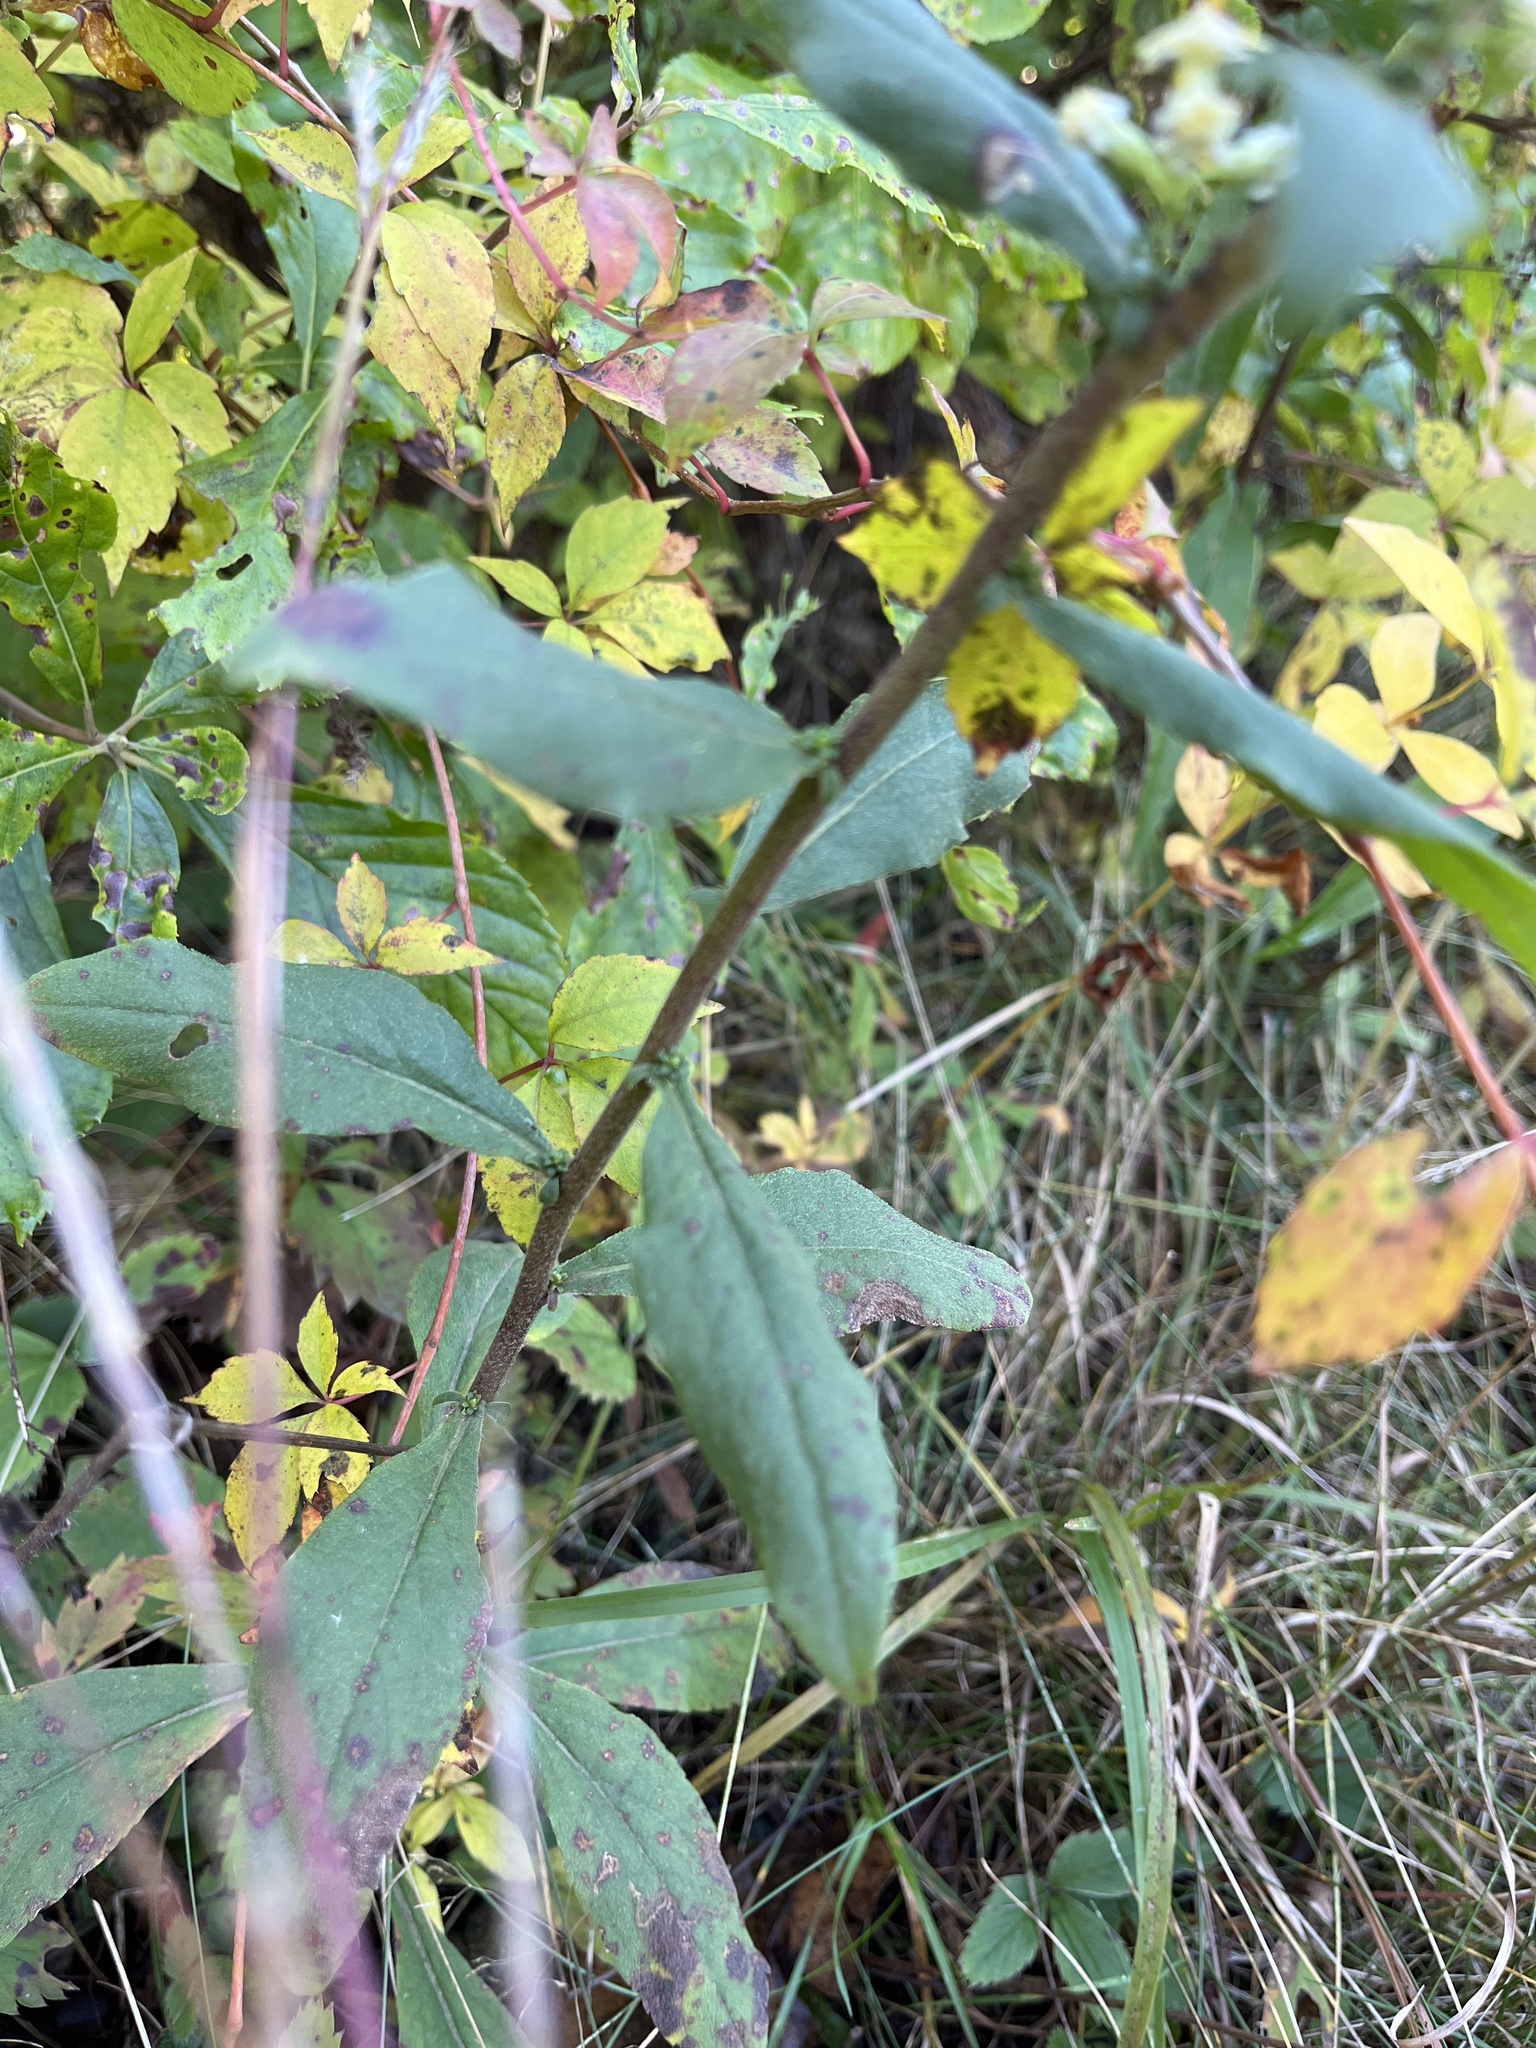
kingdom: Plantae
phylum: Tracheophyta
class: Magnoliopsida
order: Asterales
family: Asteraceae
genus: Solidago
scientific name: Solidago bicolor
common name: Silverrod
